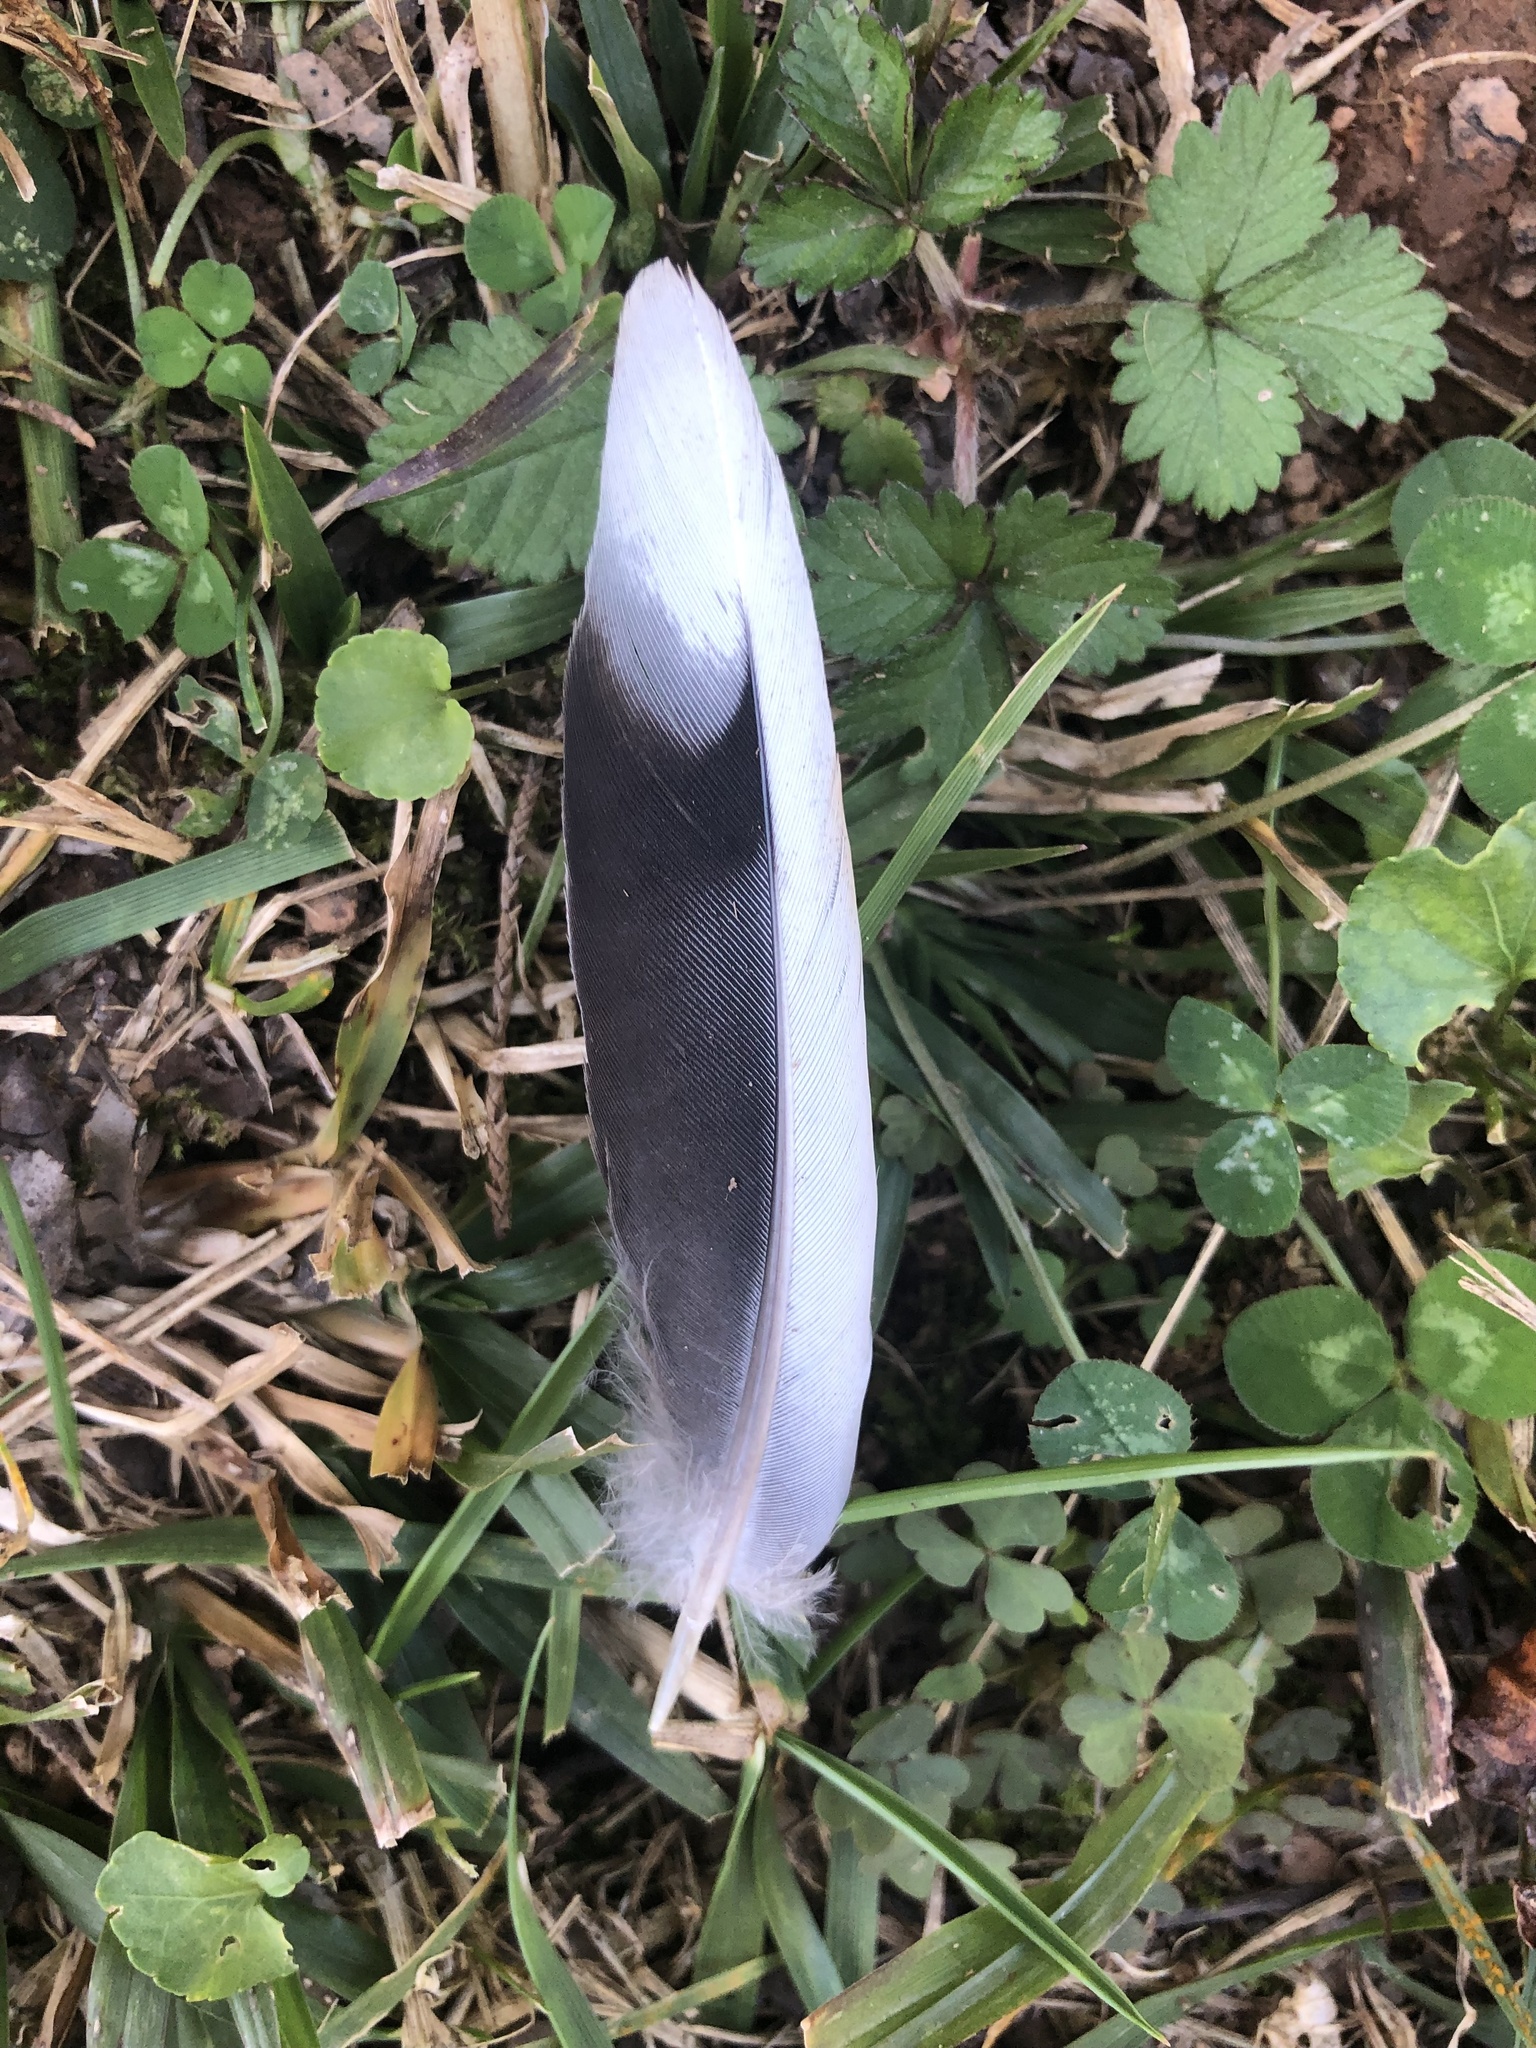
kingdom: Animalia
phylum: Chordata
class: Aves
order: Columbiformes
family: Columbidae
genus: Zenaida
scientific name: Zenaida macroura
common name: Mourning dove
